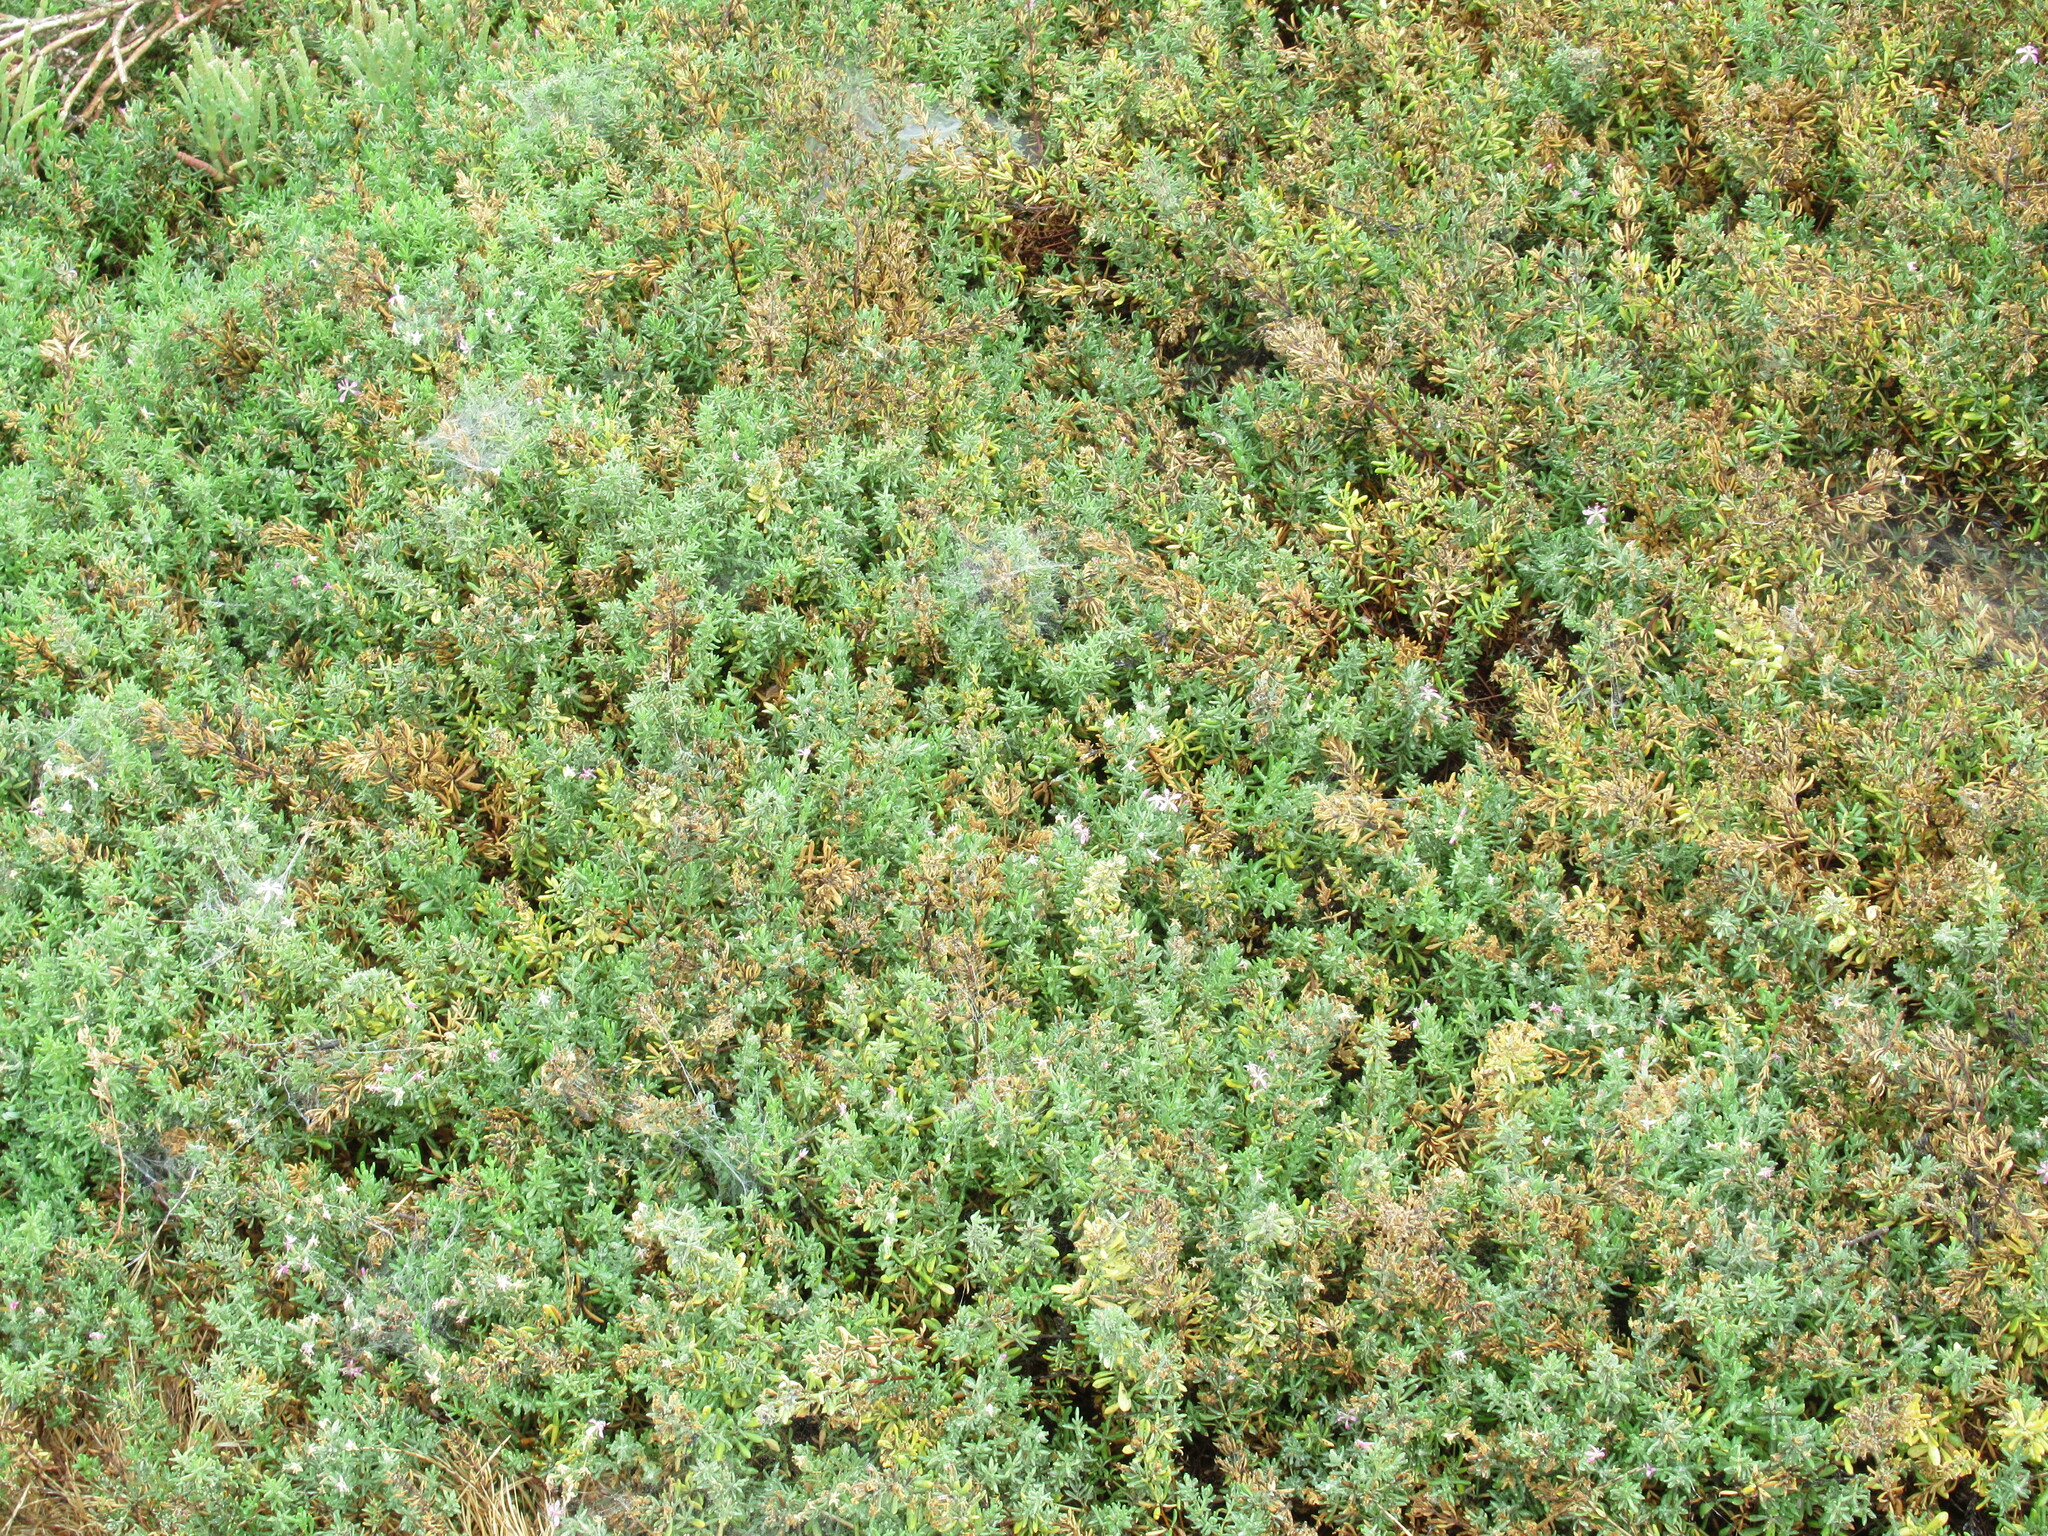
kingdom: Plantae
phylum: Tracheophyta
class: Magnoliopsida
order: Caryophyllales
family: Frankeniaceae
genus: Frankenia
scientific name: Frankenia salina
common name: Alkali seaheath
